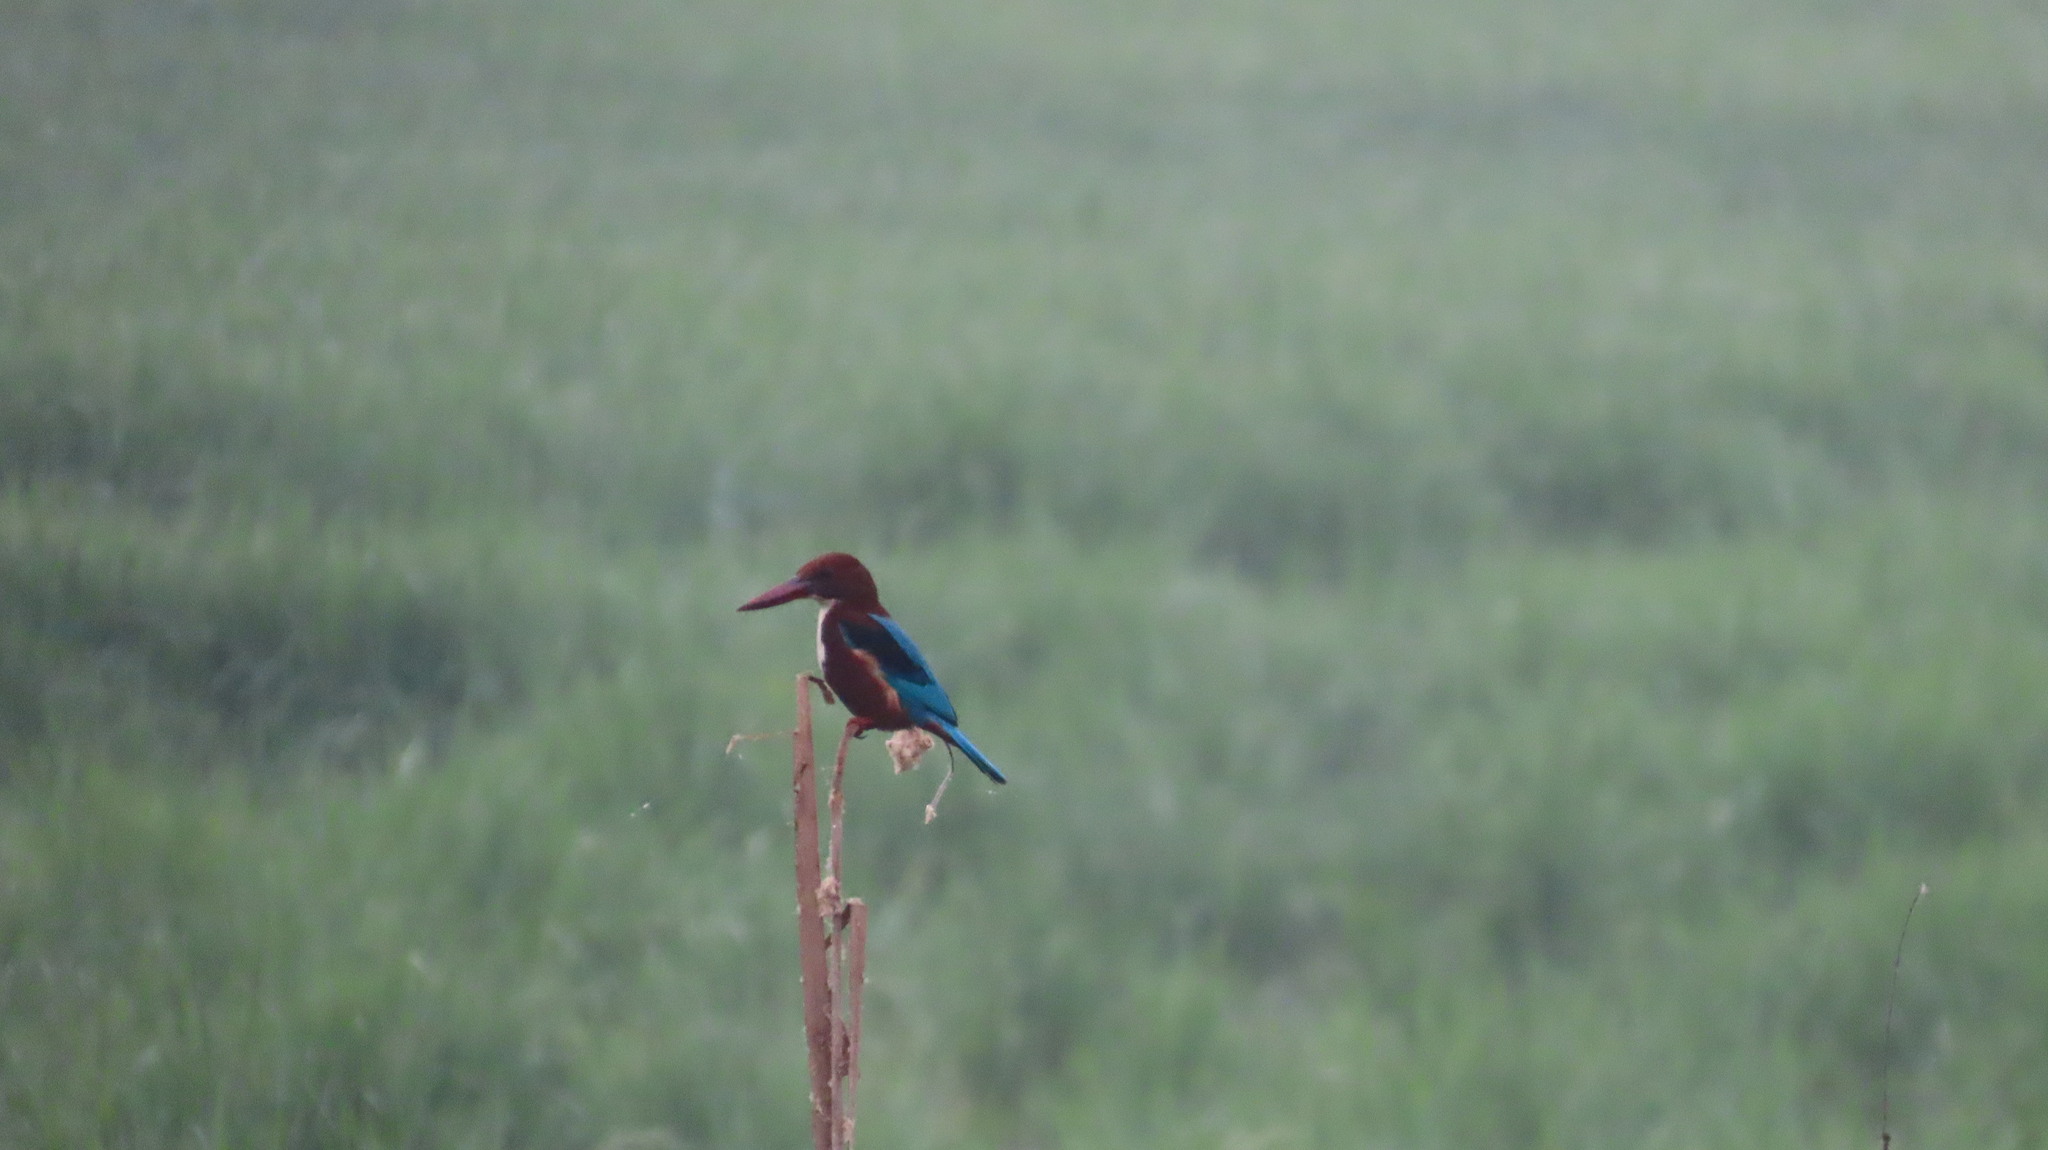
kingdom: Animalia
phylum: Chordata
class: Aves
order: Coraciiformes
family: Alcedinidae
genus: Halcyon
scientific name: Halcyon smyrnensis
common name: White-throated kingfisher
